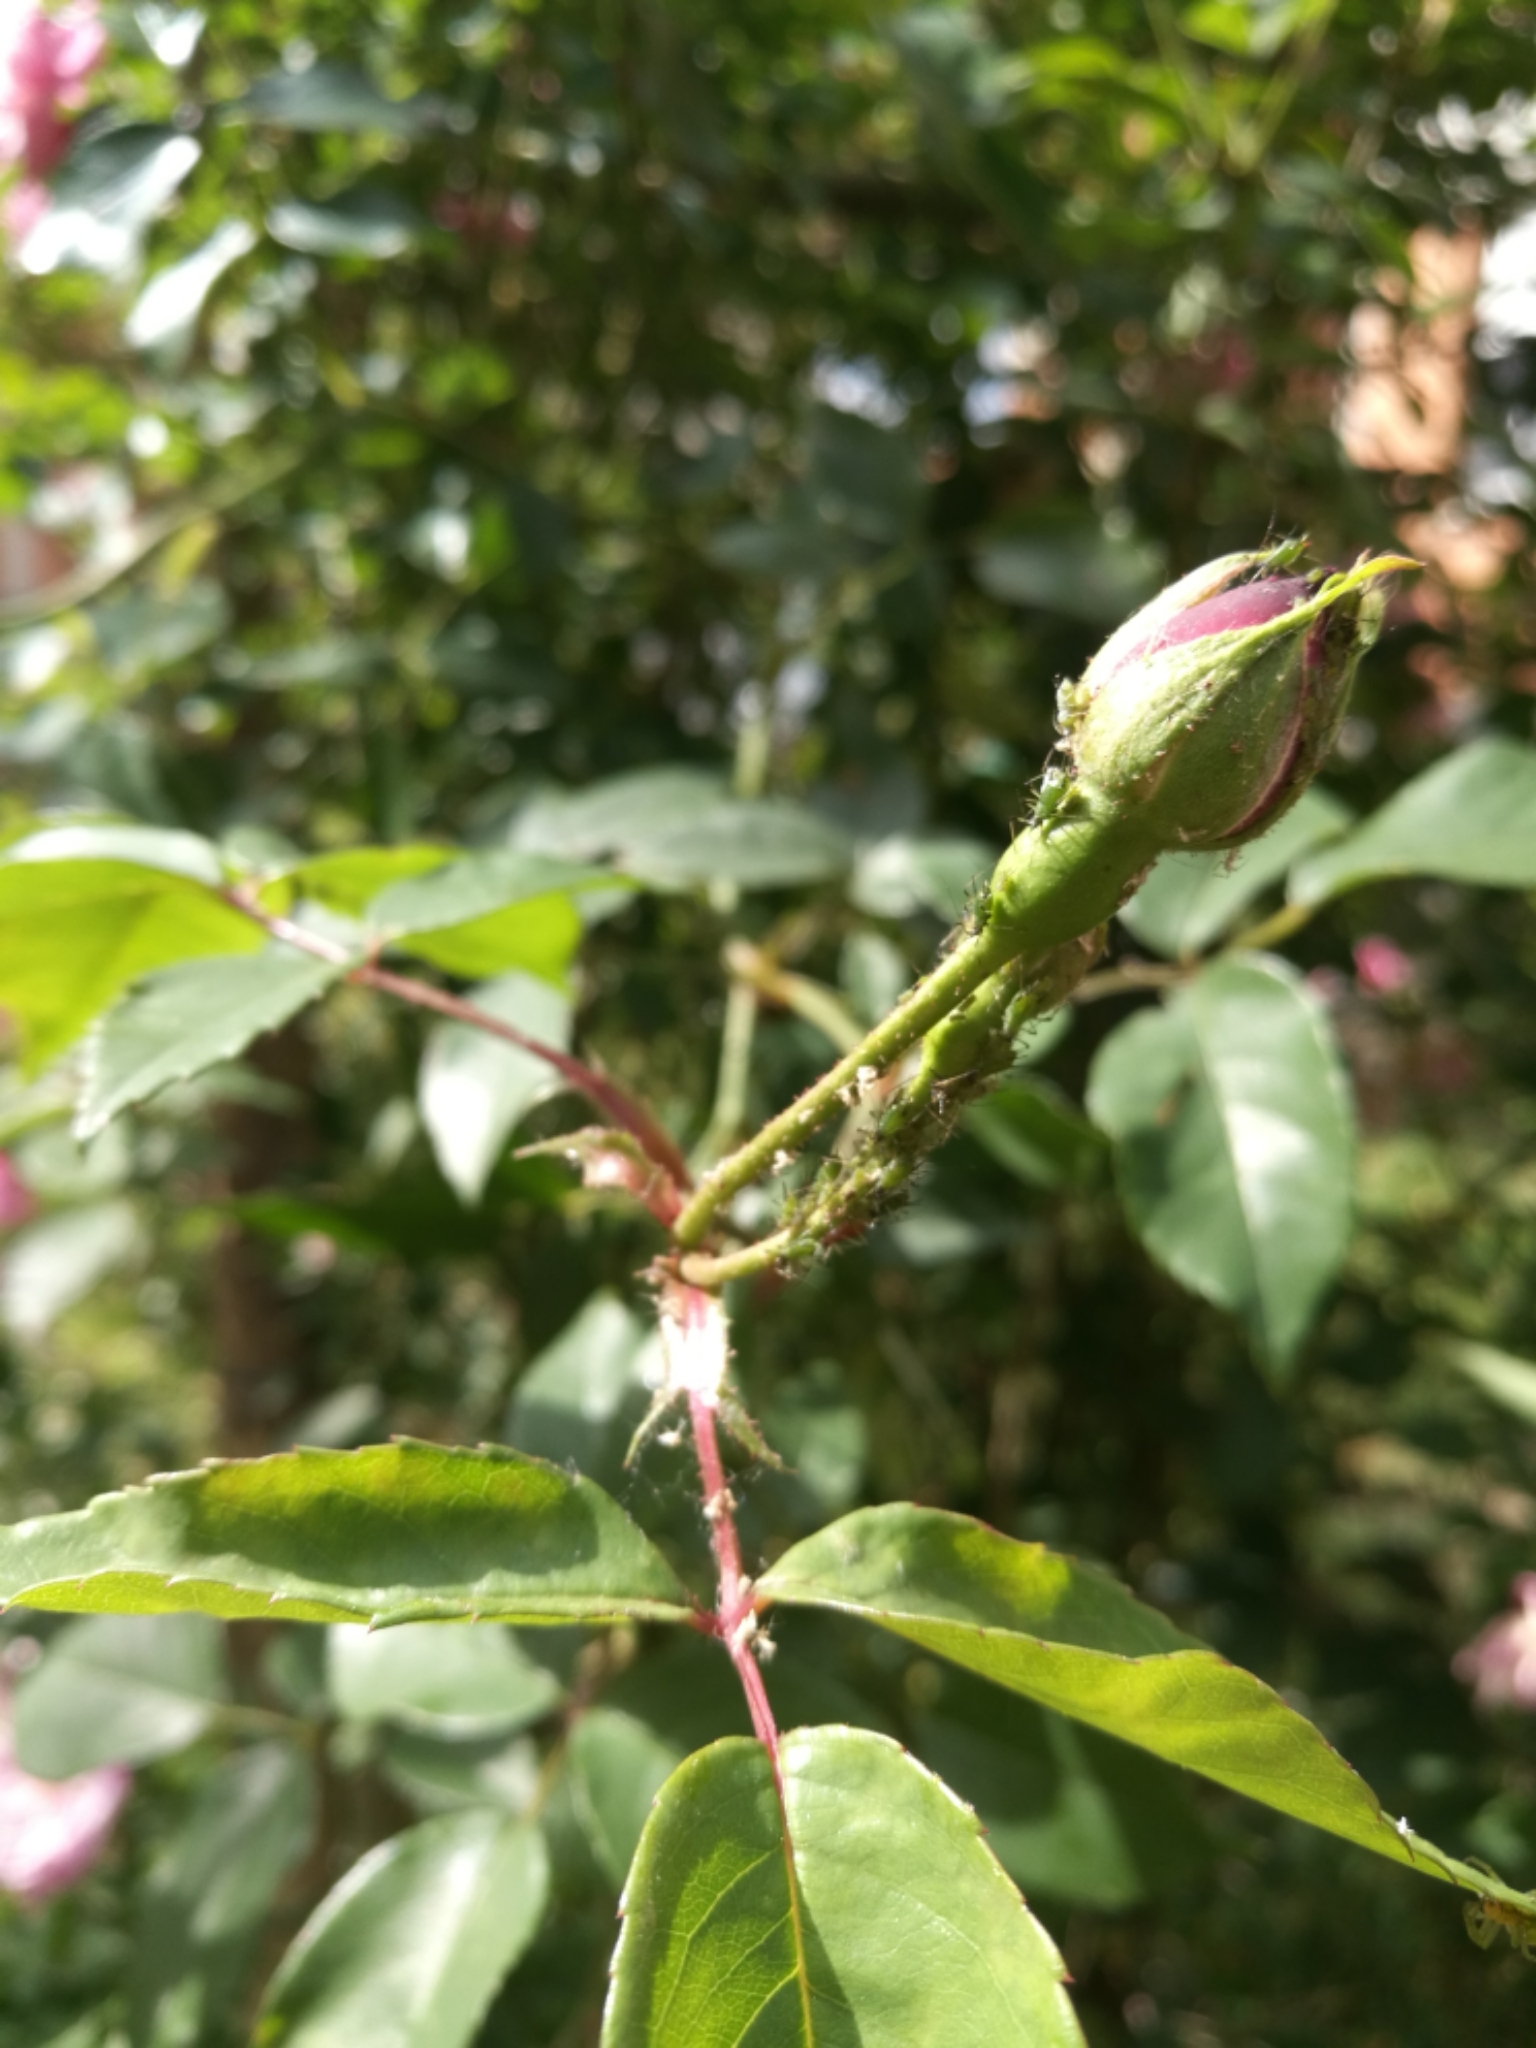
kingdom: Animalia
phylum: Arthropoda
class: Insecta
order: Hemiptera
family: Aphididae
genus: Macrosiphum
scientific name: Macrosiphum rosae
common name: Rose aphid
